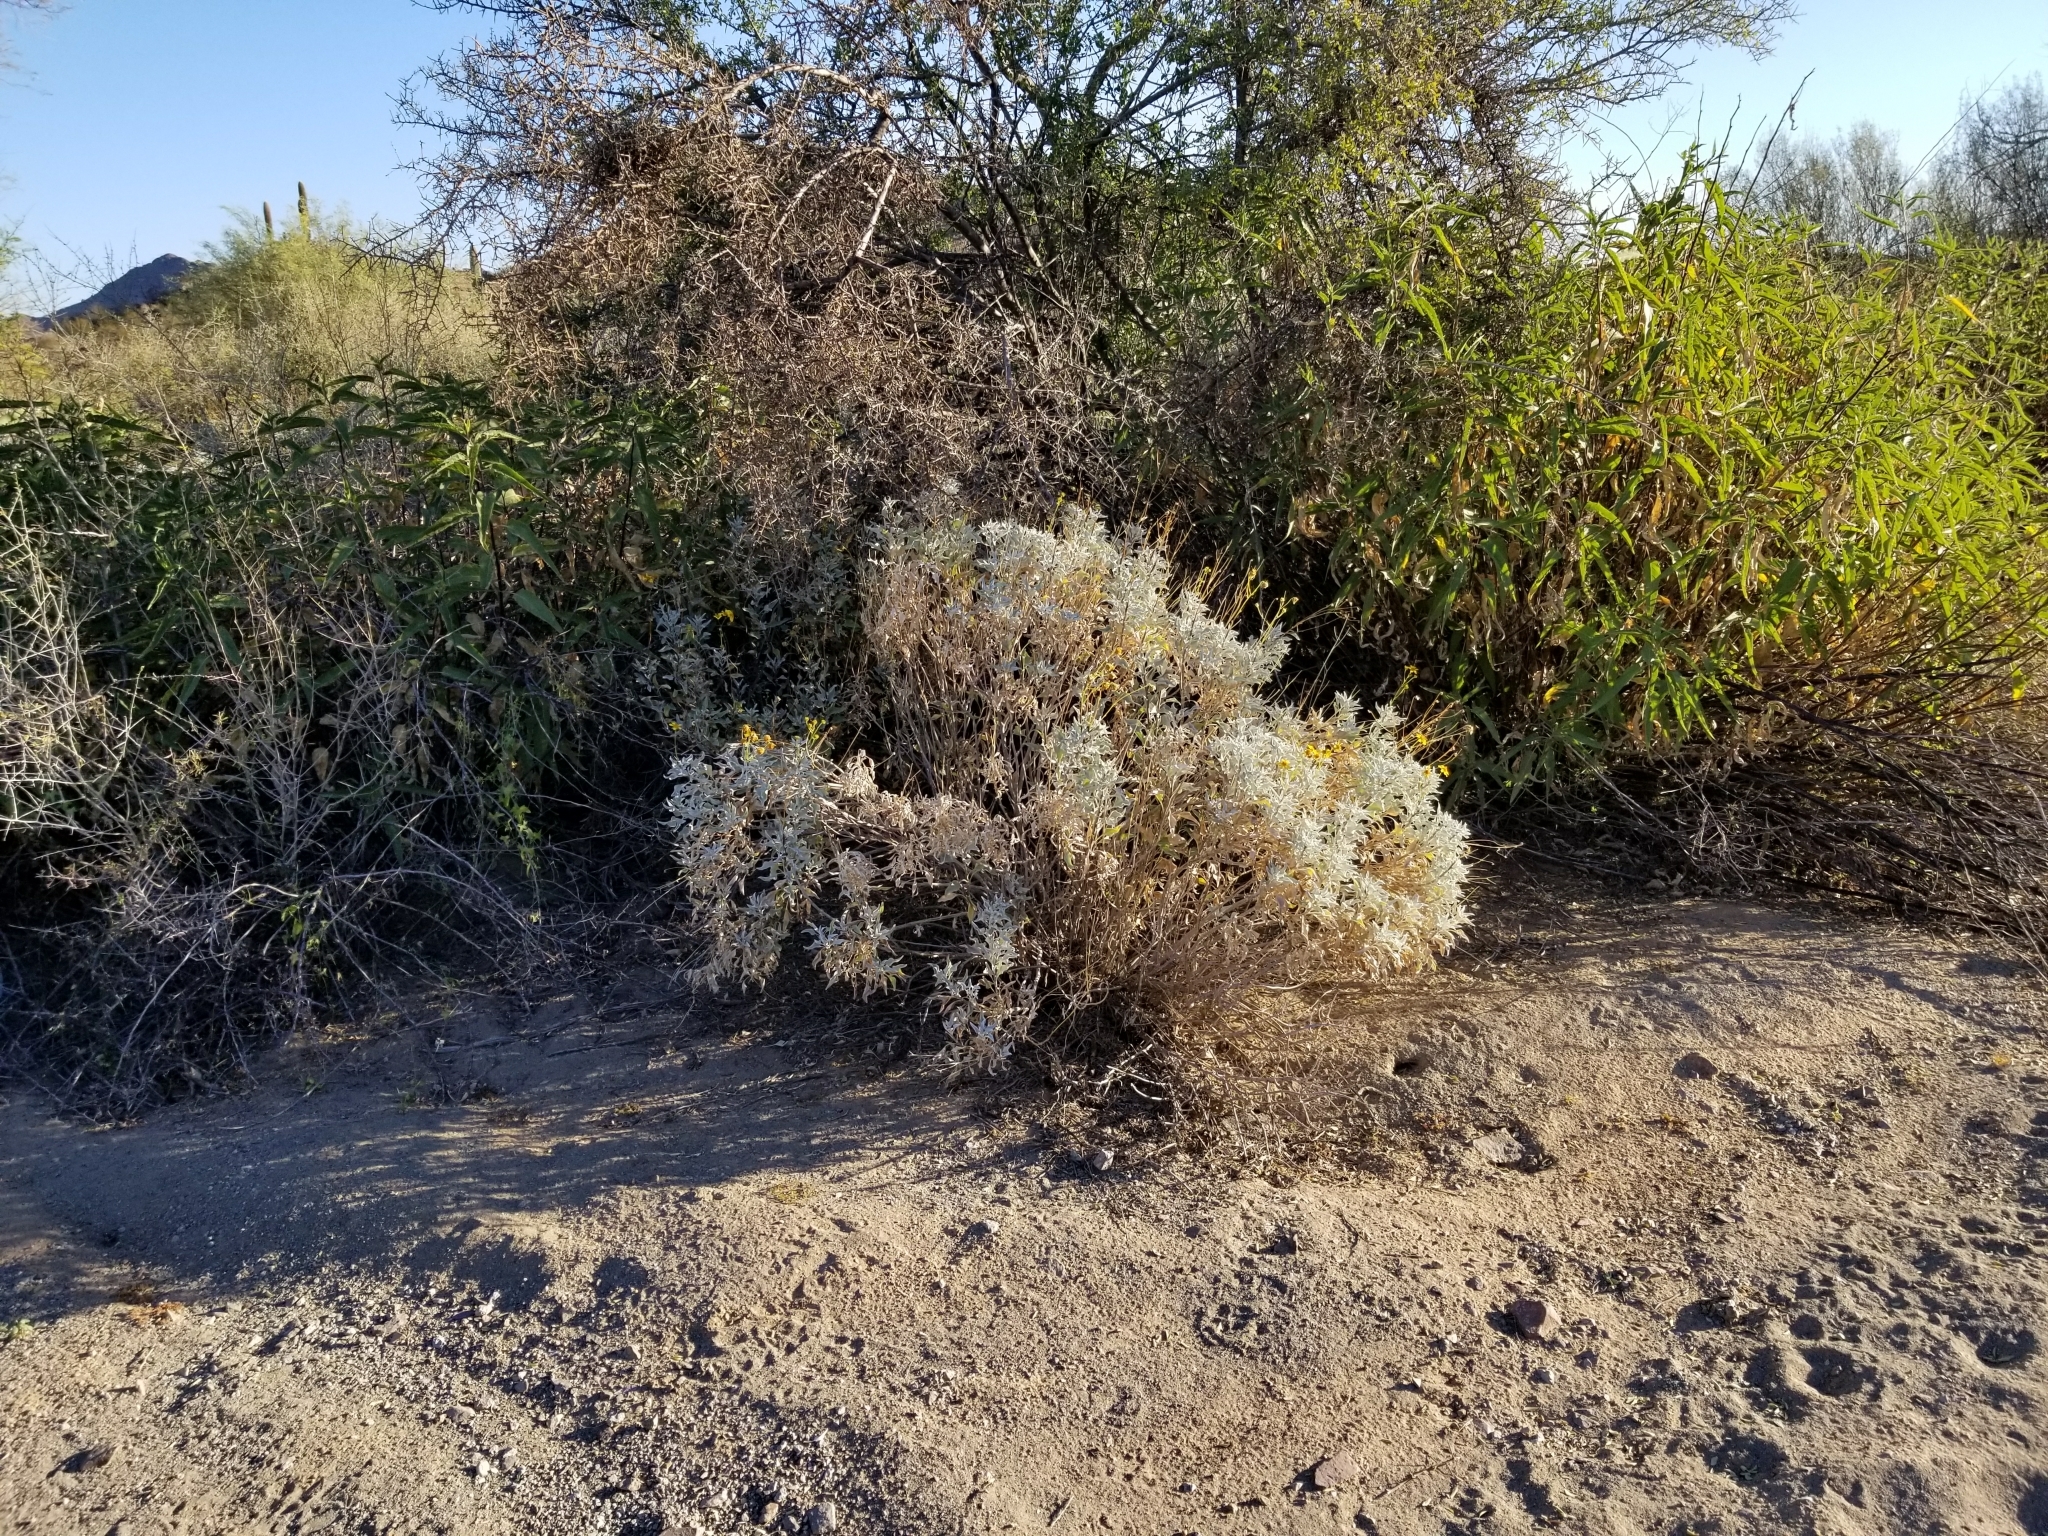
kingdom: Plantae
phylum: Tracheophyta
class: Magnoliopsida
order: Asterales
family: Asteraceae
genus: Encelia
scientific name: Encelia farinosa
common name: Brittlebush
